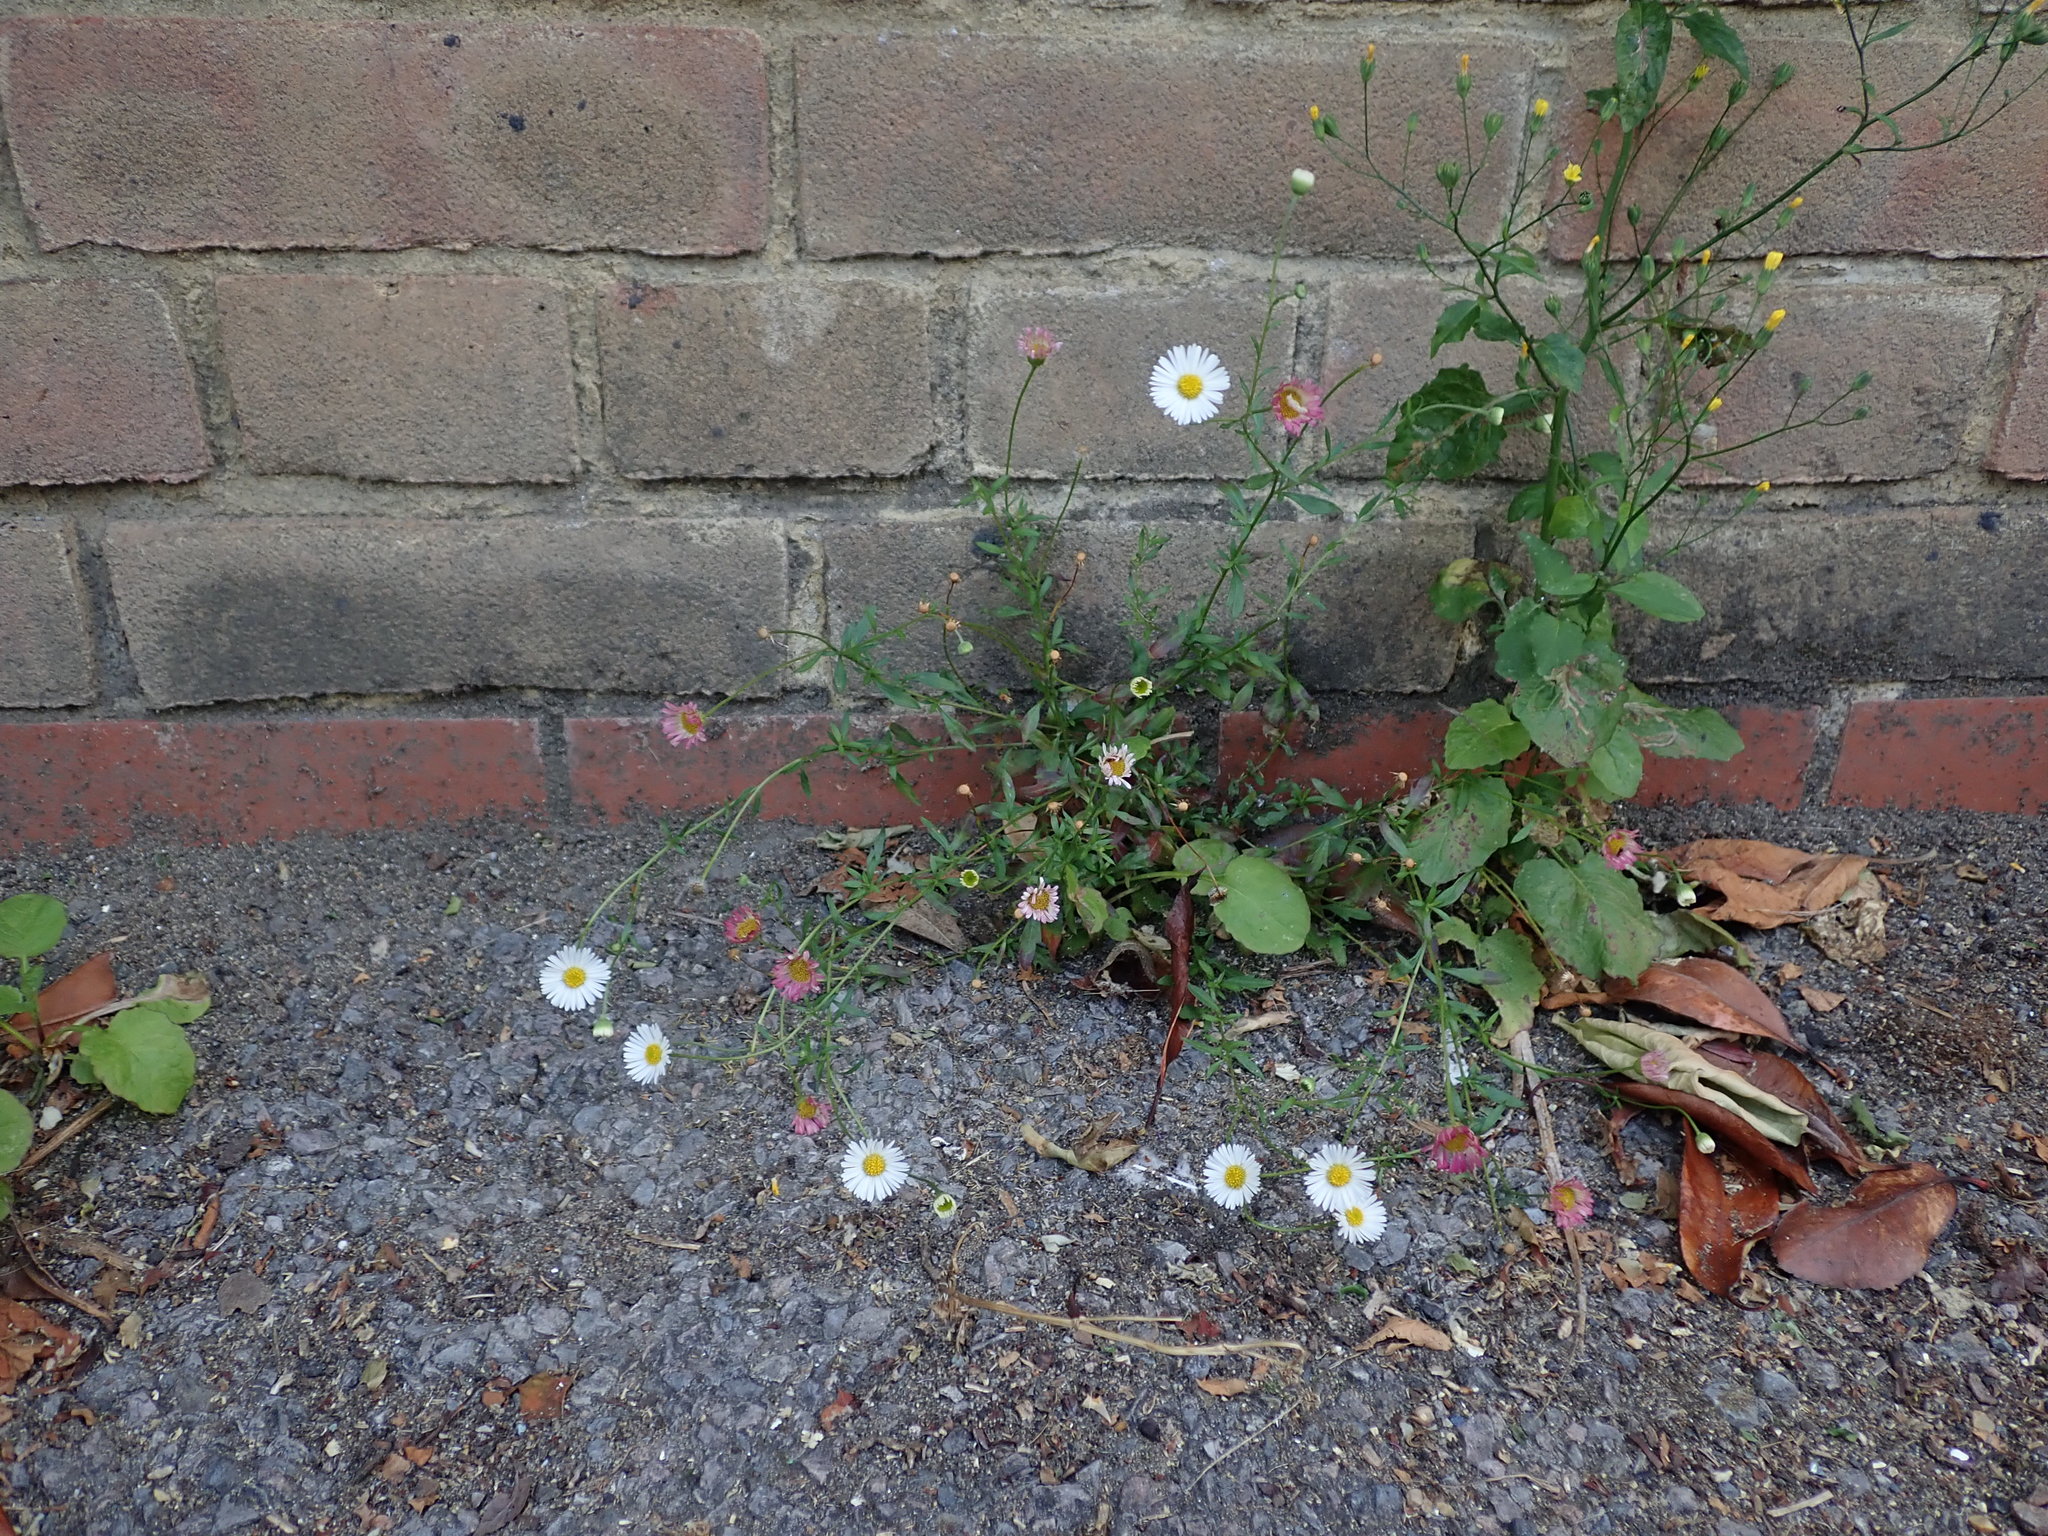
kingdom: Plantae
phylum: Tracheophyta
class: Magnoliopsida
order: Asterales
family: Asteraceae
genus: Erigeron
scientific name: Erigeron karvinskianus
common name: Mexican fleabane
